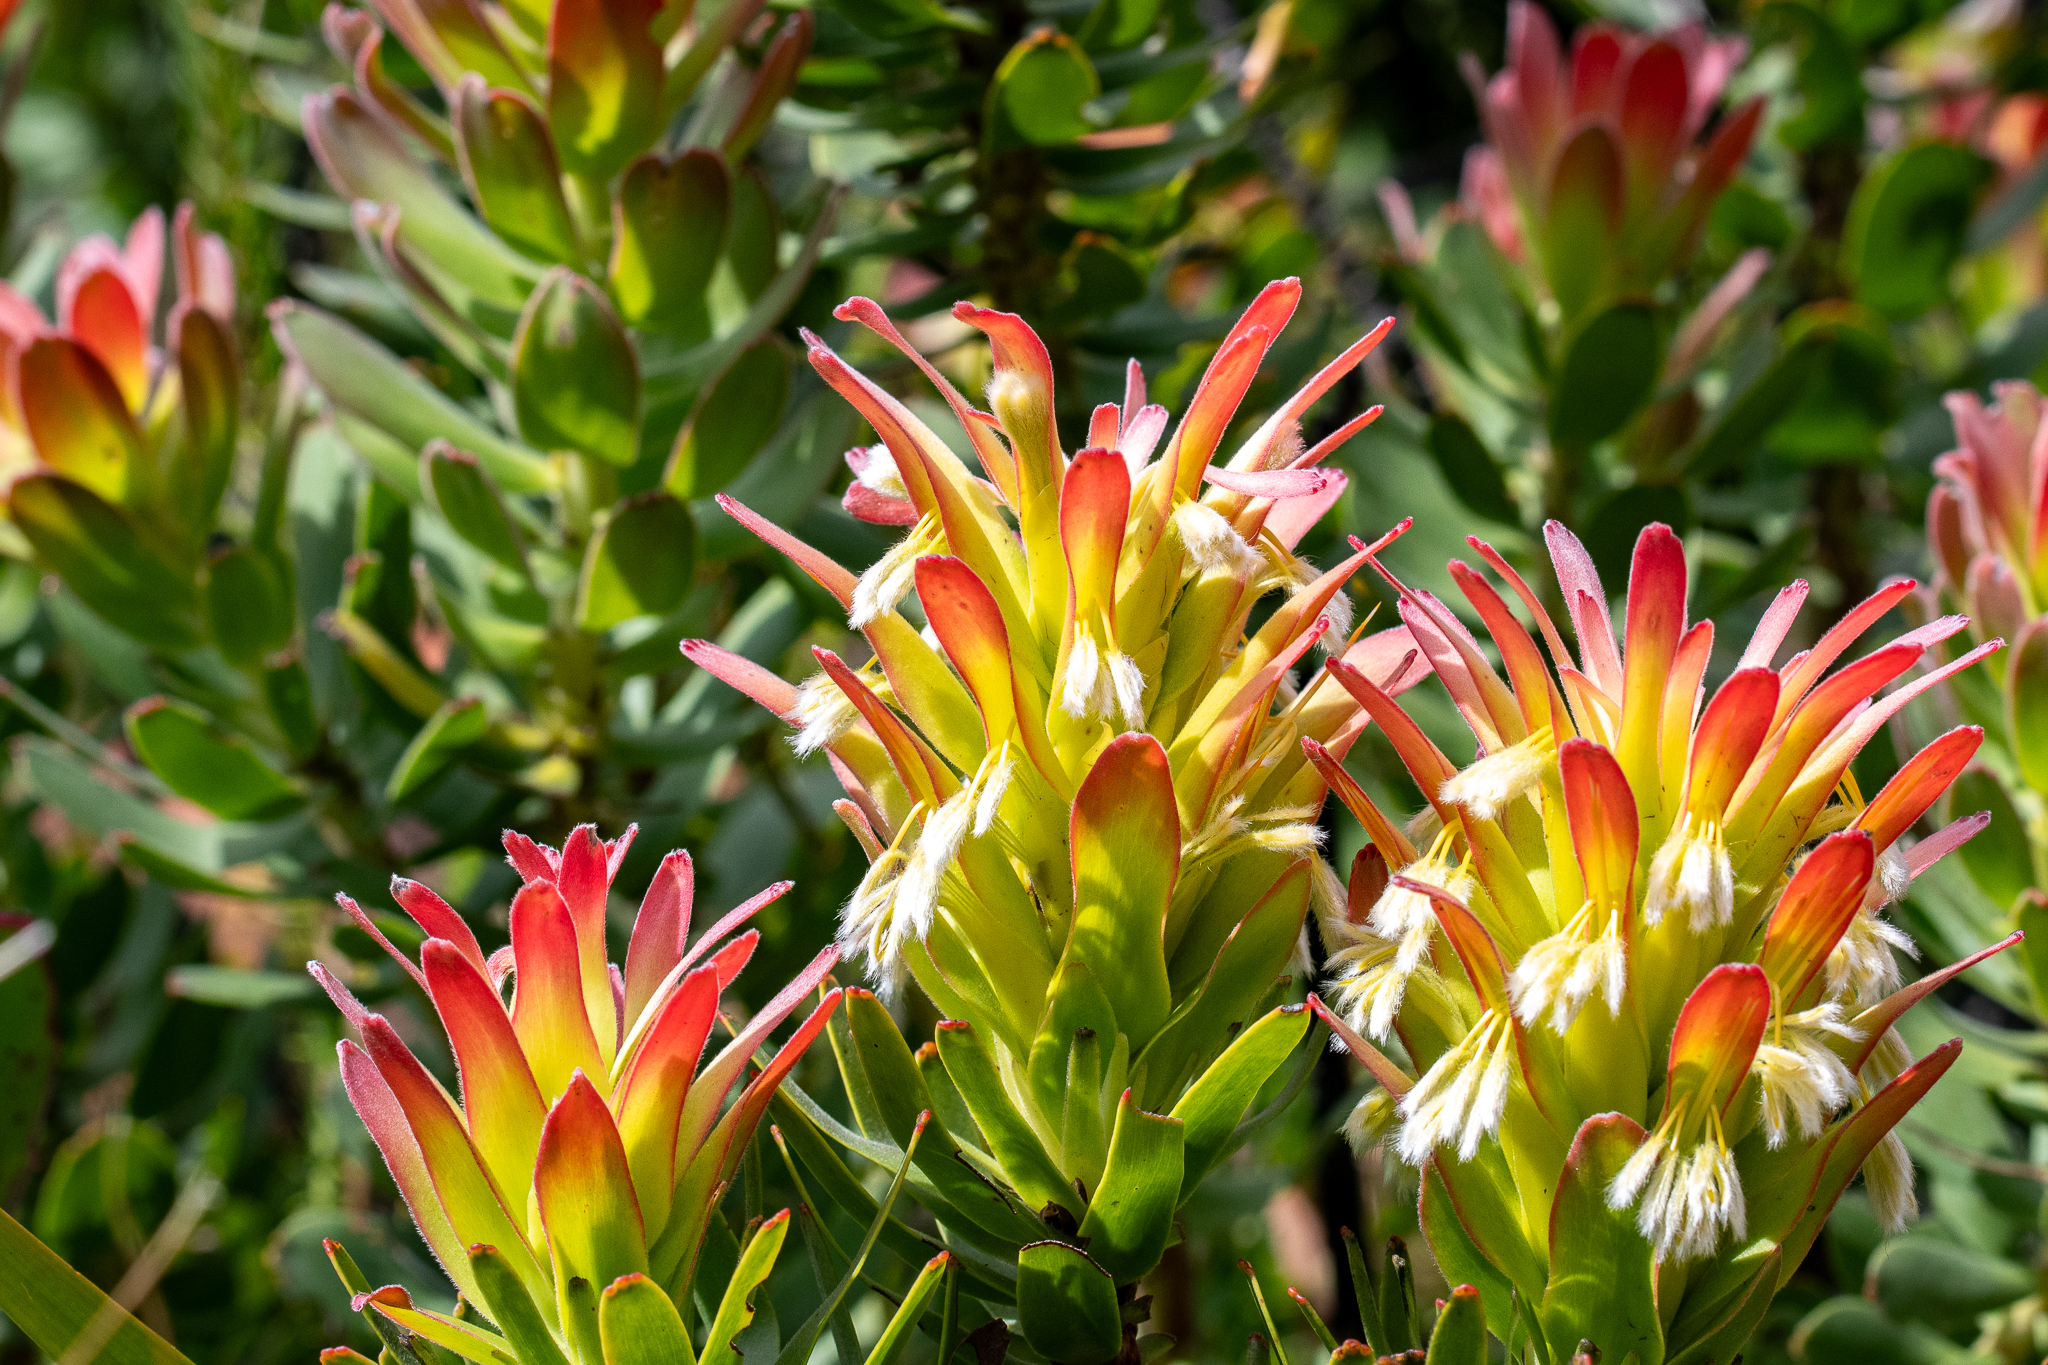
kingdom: Plantae
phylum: Tracheophyta
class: Magnoliopsida
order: Proteales
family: Proteaceae
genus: Mimetes
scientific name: Mimetes cucullatus
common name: Common pagoda
